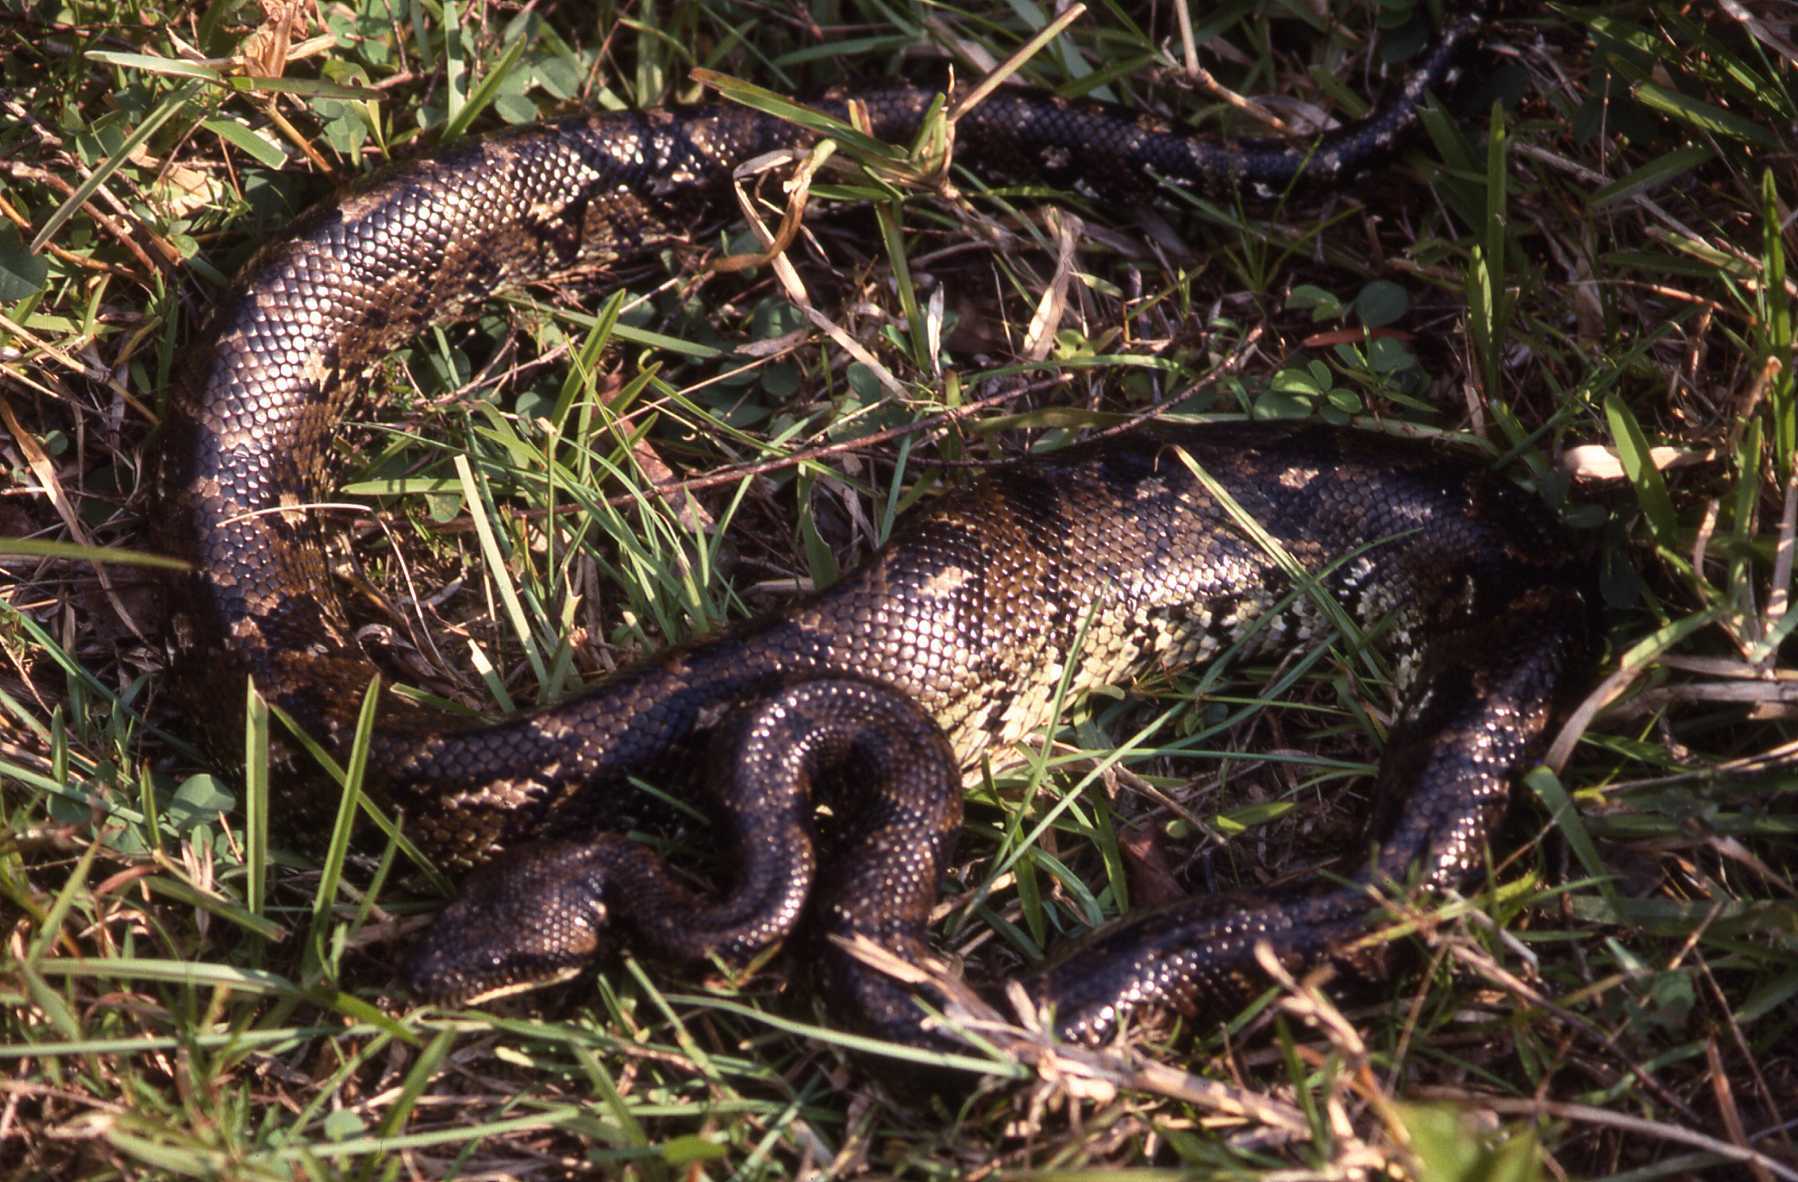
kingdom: Animalia
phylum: Chordata
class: Squamata
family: Boidae
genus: Sanzinia
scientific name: Sanzinia madagascariensis
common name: Madagascar tree boa
